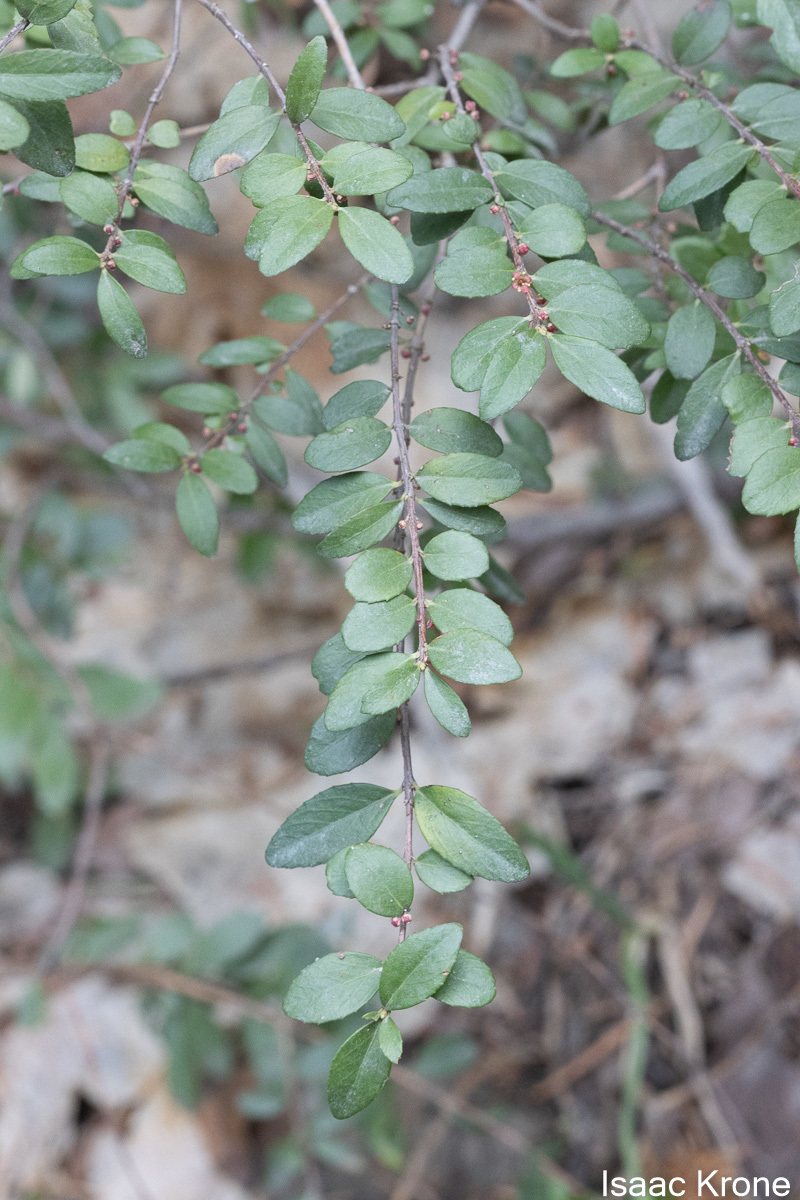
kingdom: Plantae
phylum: Tracheophyta
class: Magnoliopsida
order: Celastrales
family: Celastraceae
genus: Paxistima
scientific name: Paxistima myrsinites
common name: Mountain-lover
